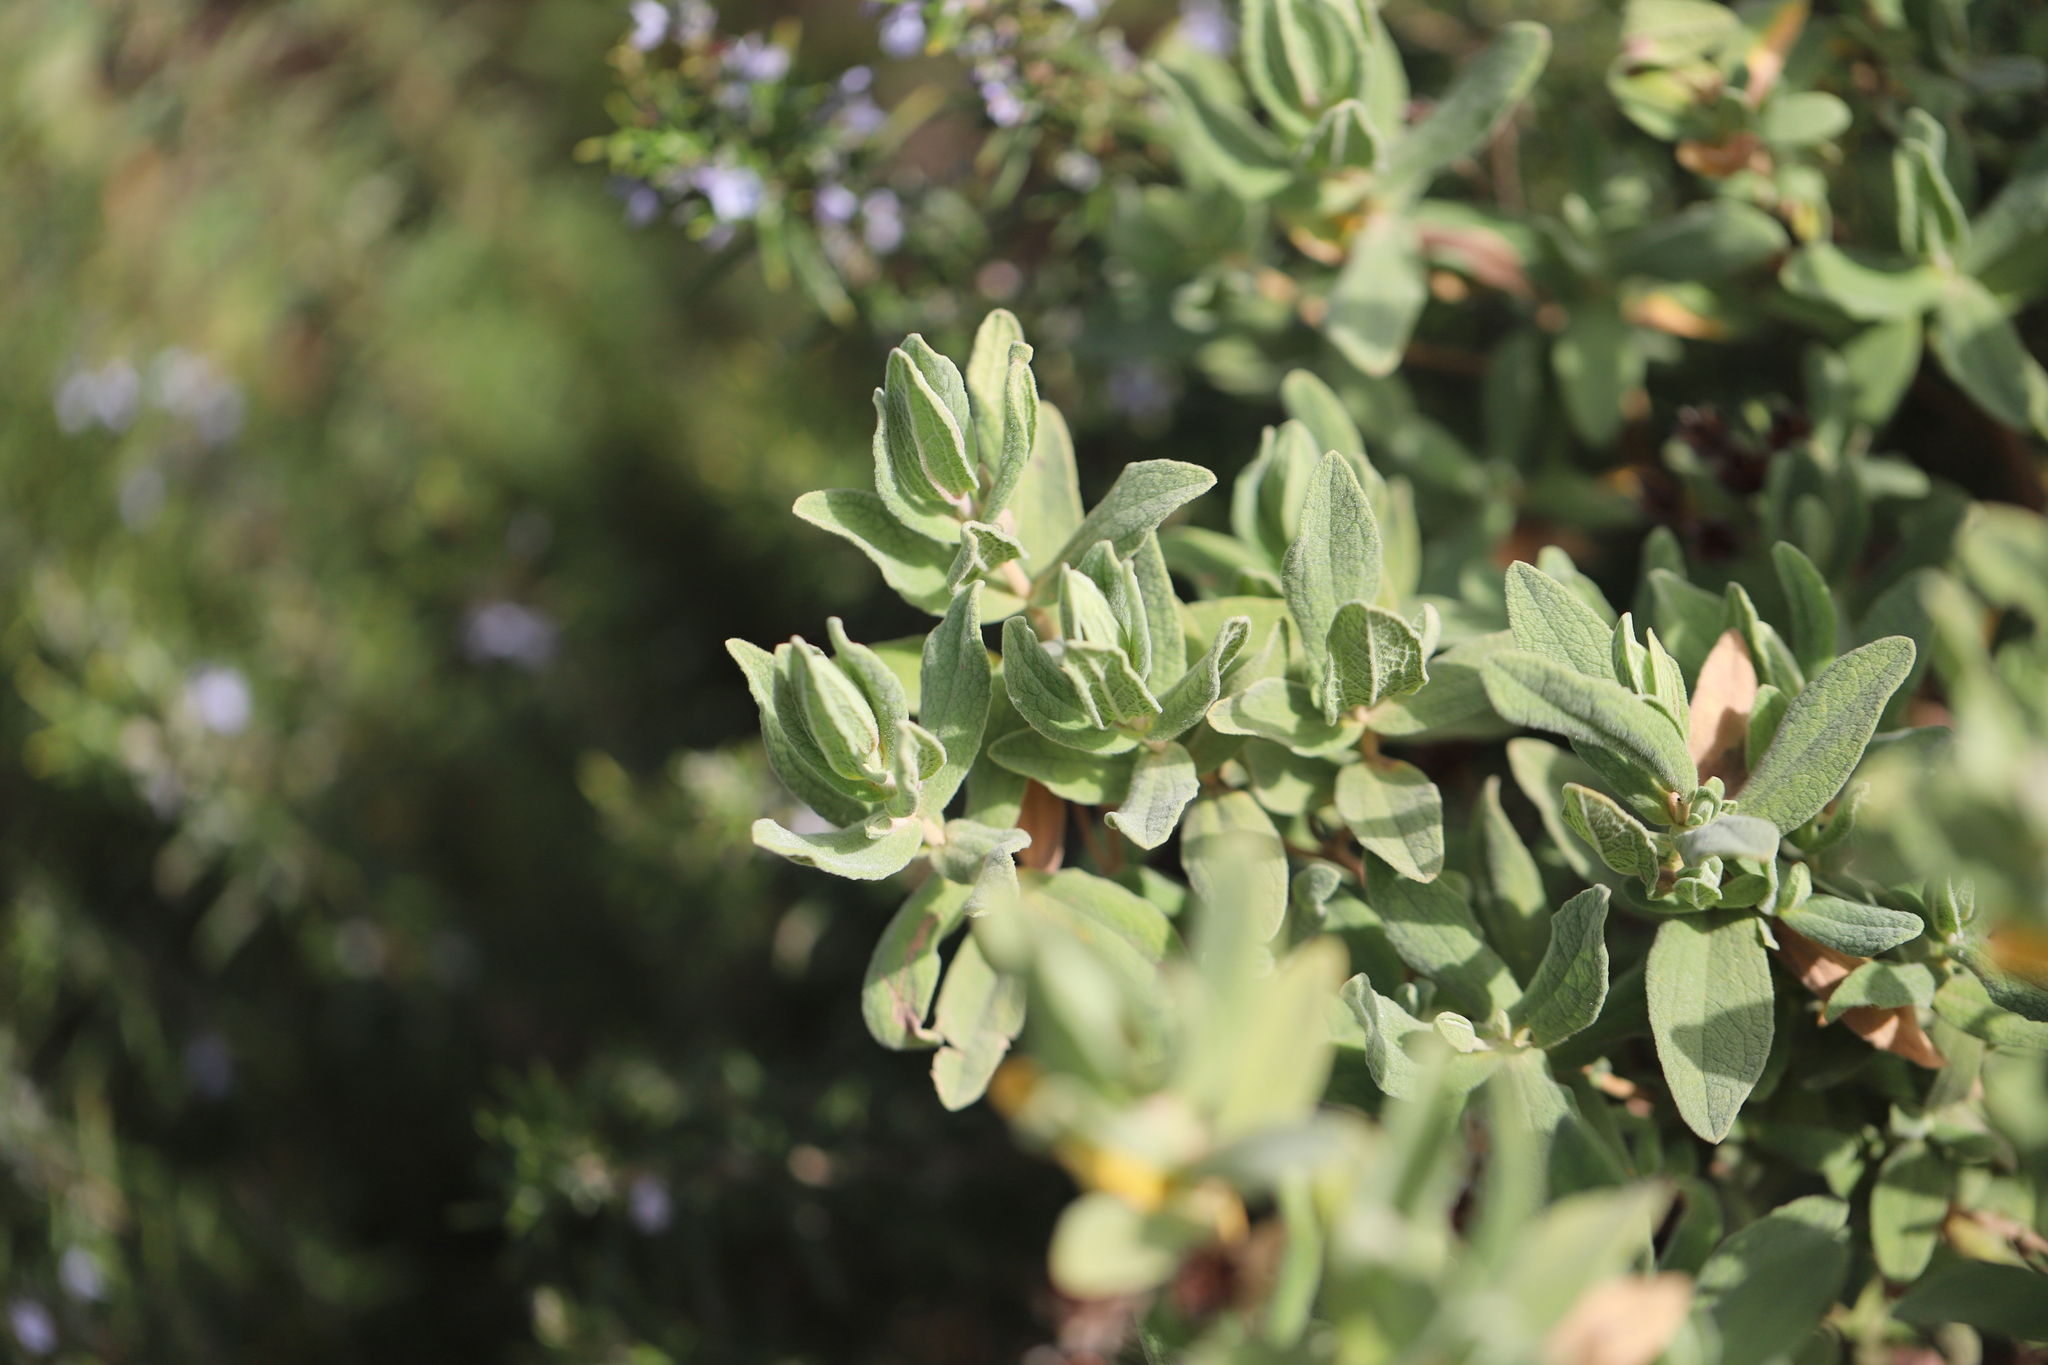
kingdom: Plantae
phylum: Tracheophyta
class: Magnoliopsida
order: Malvales
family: Cistaceae
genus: Cistus
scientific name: Cistus albidus
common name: White-leaf rock-rose
